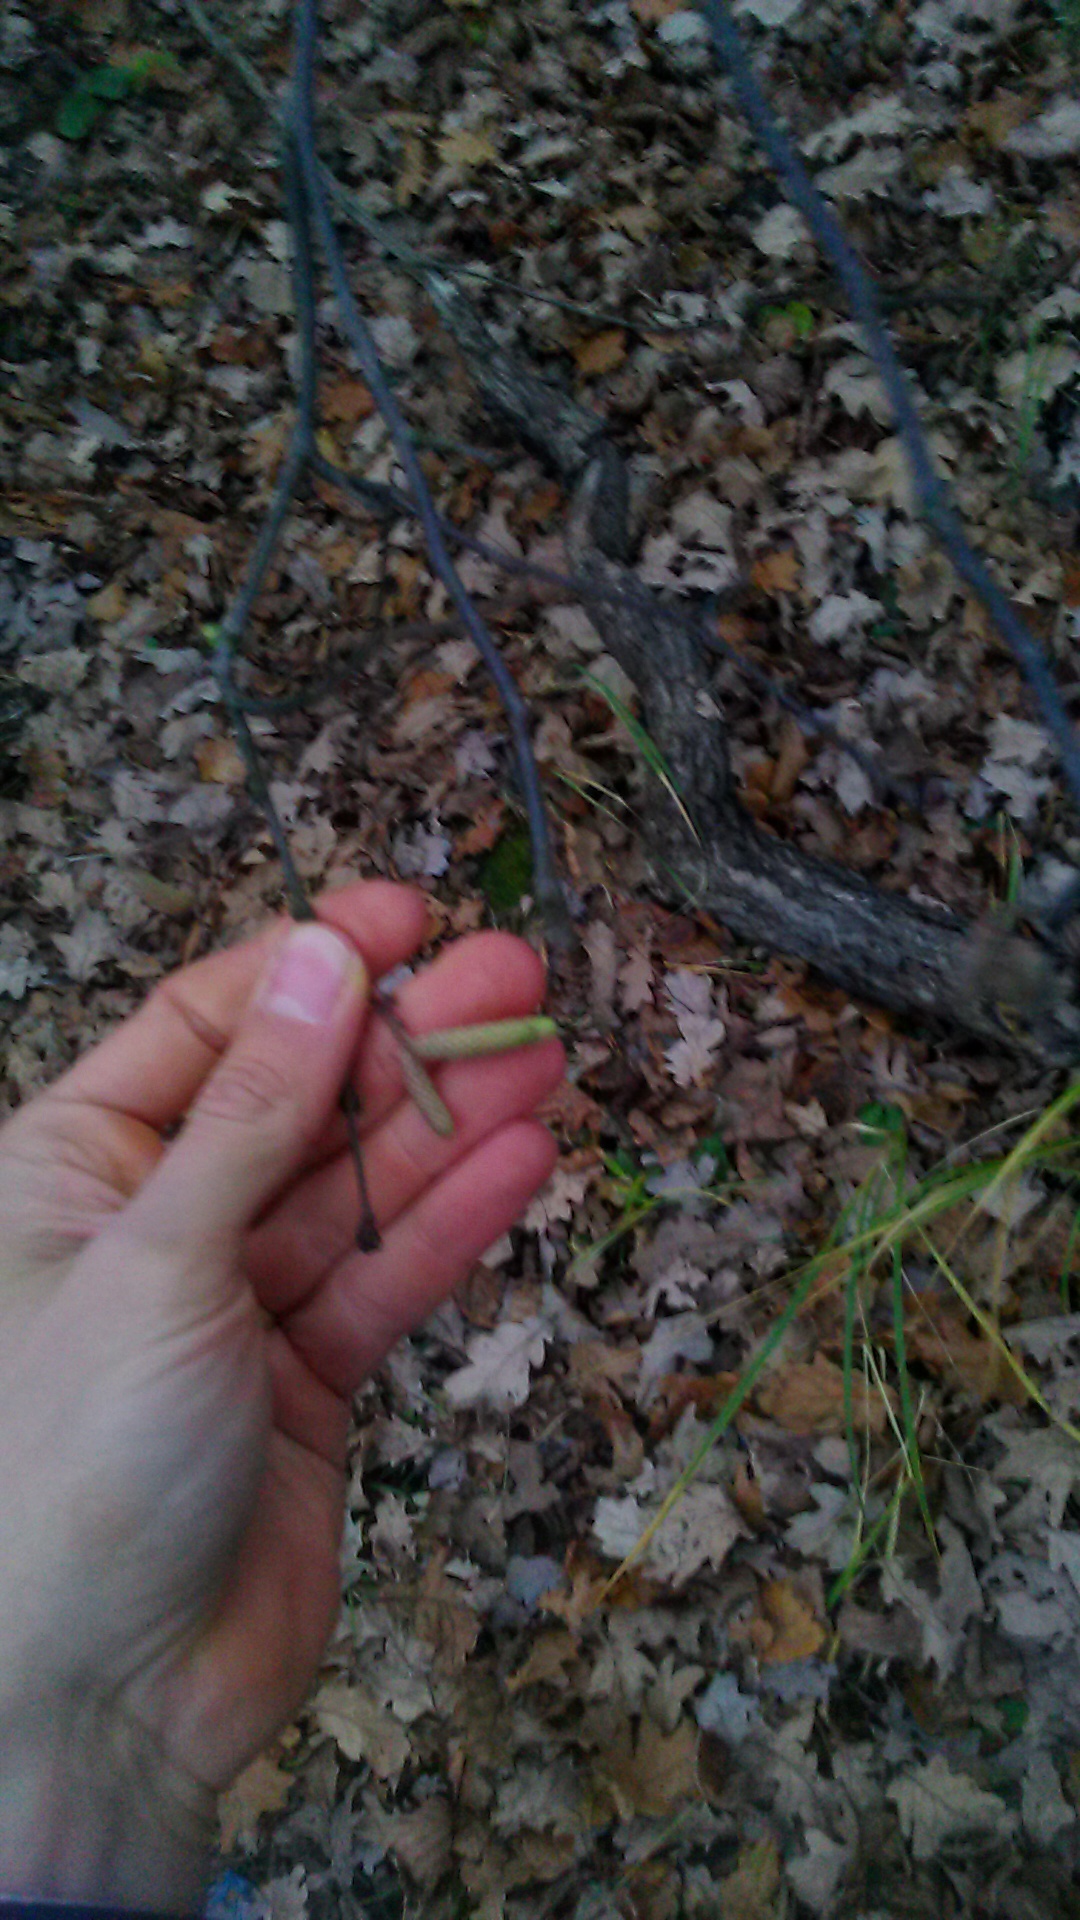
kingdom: Plantae
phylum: Tracheophyta
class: Magnoliopsida
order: Fagales
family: Betulaceae
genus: Corylus
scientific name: Corylus avellana
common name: European hazel
